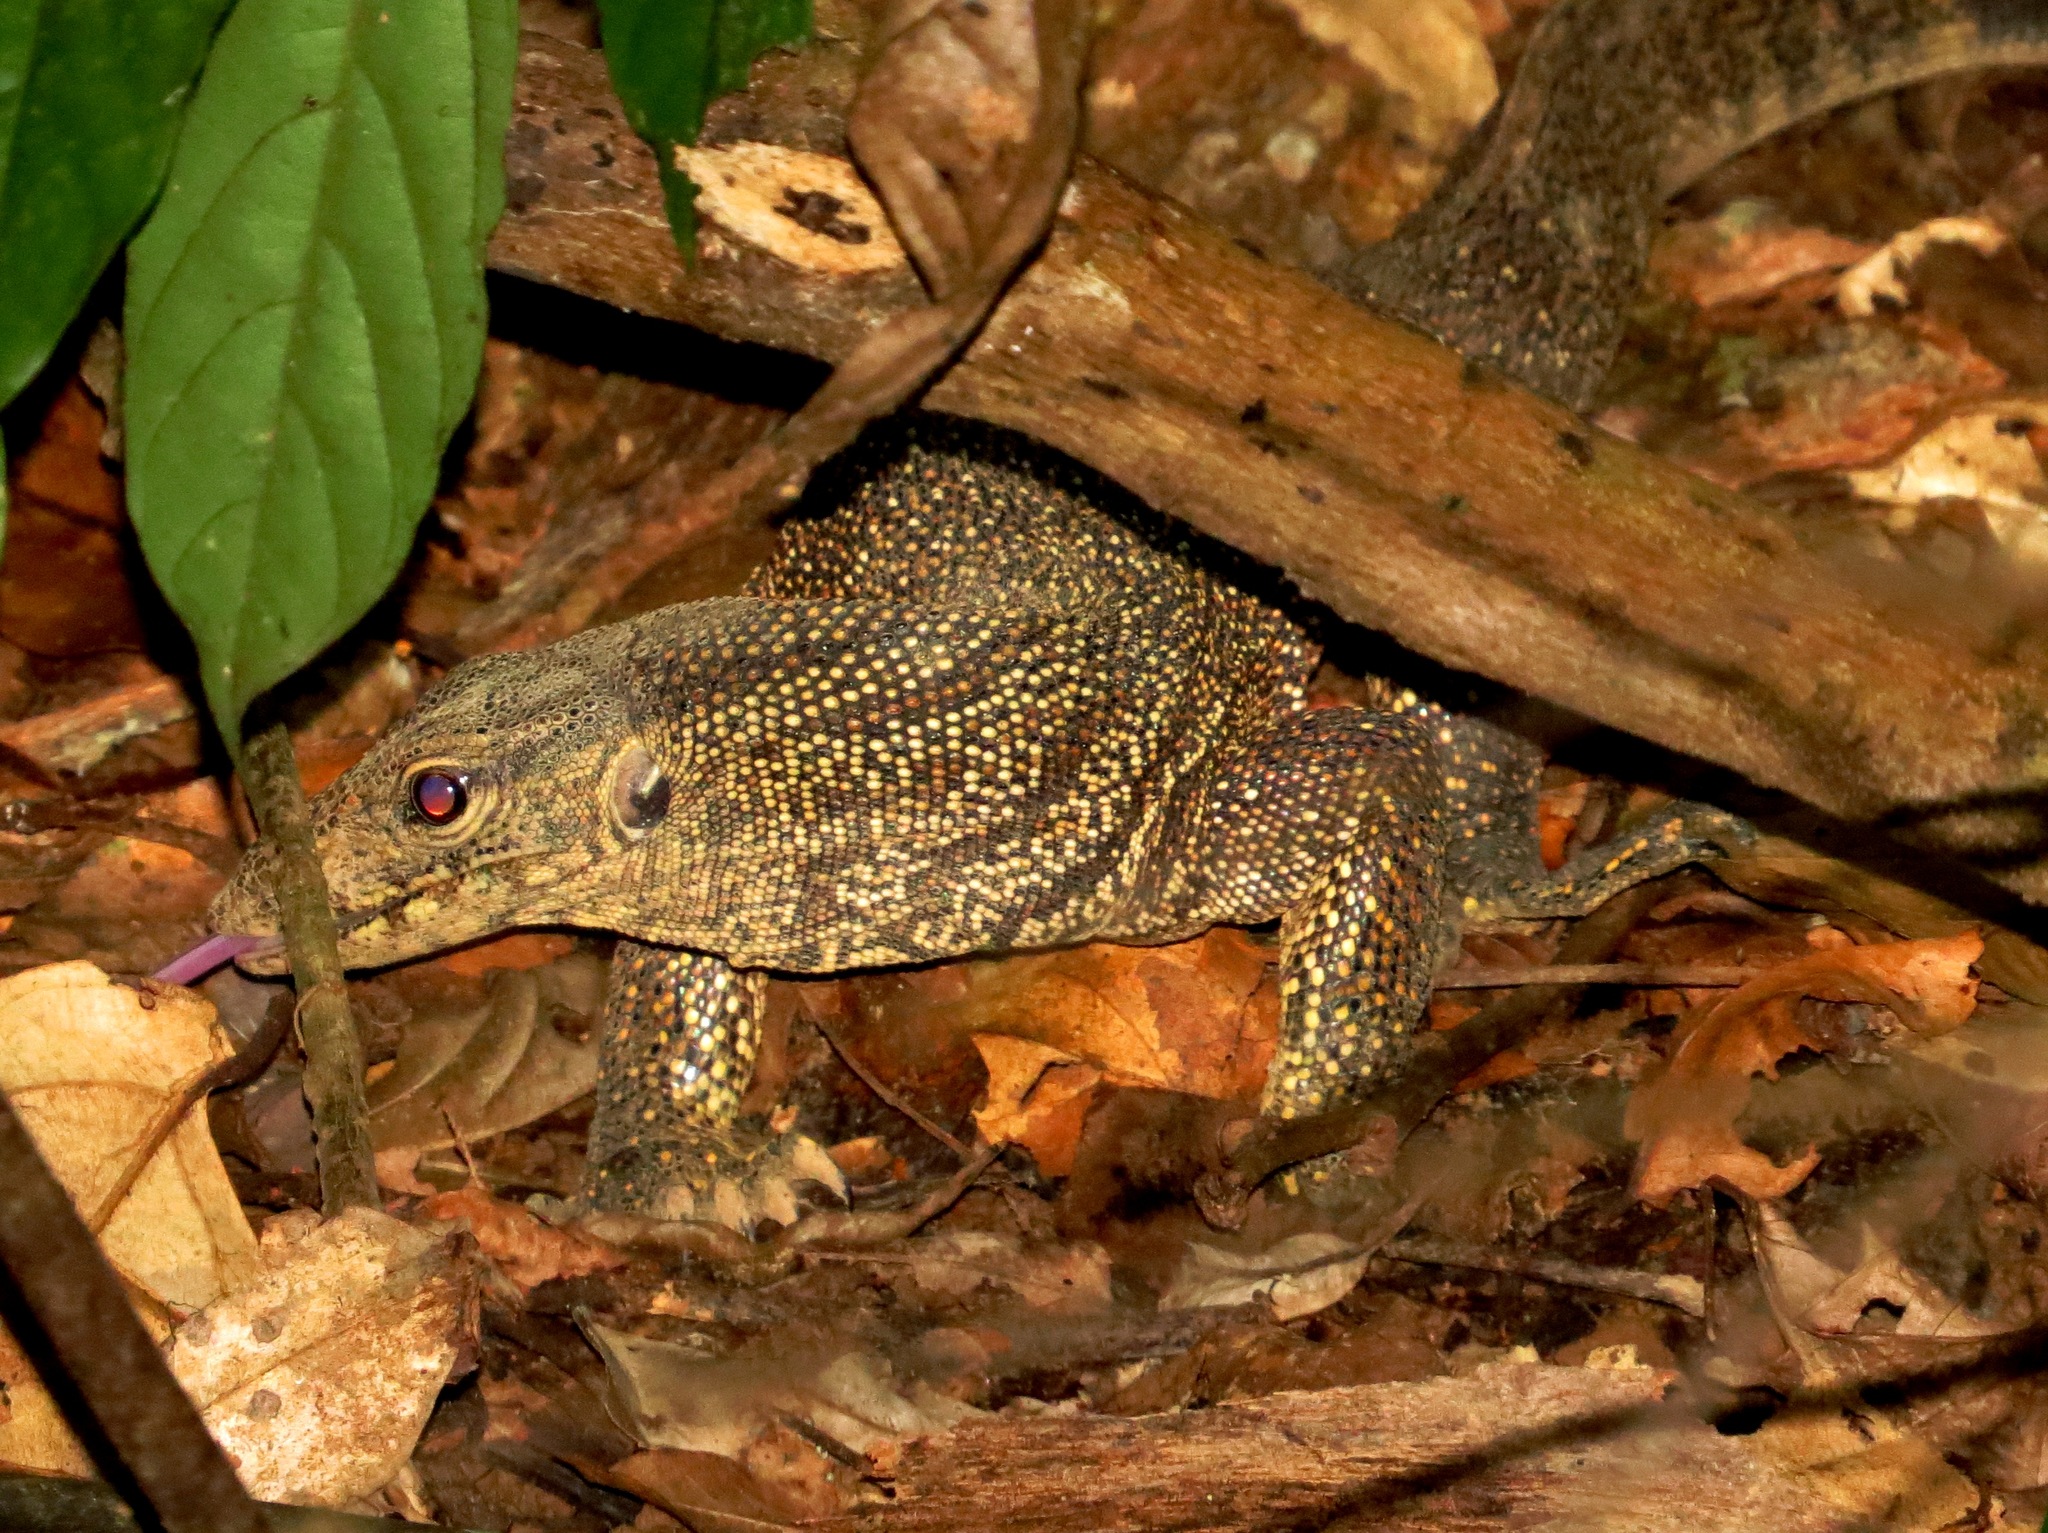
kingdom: Animalia
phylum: Chordata
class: Squamata
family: Varanidae
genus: Varanus
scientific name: Varanus nebulosus
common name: Clouded monitor
